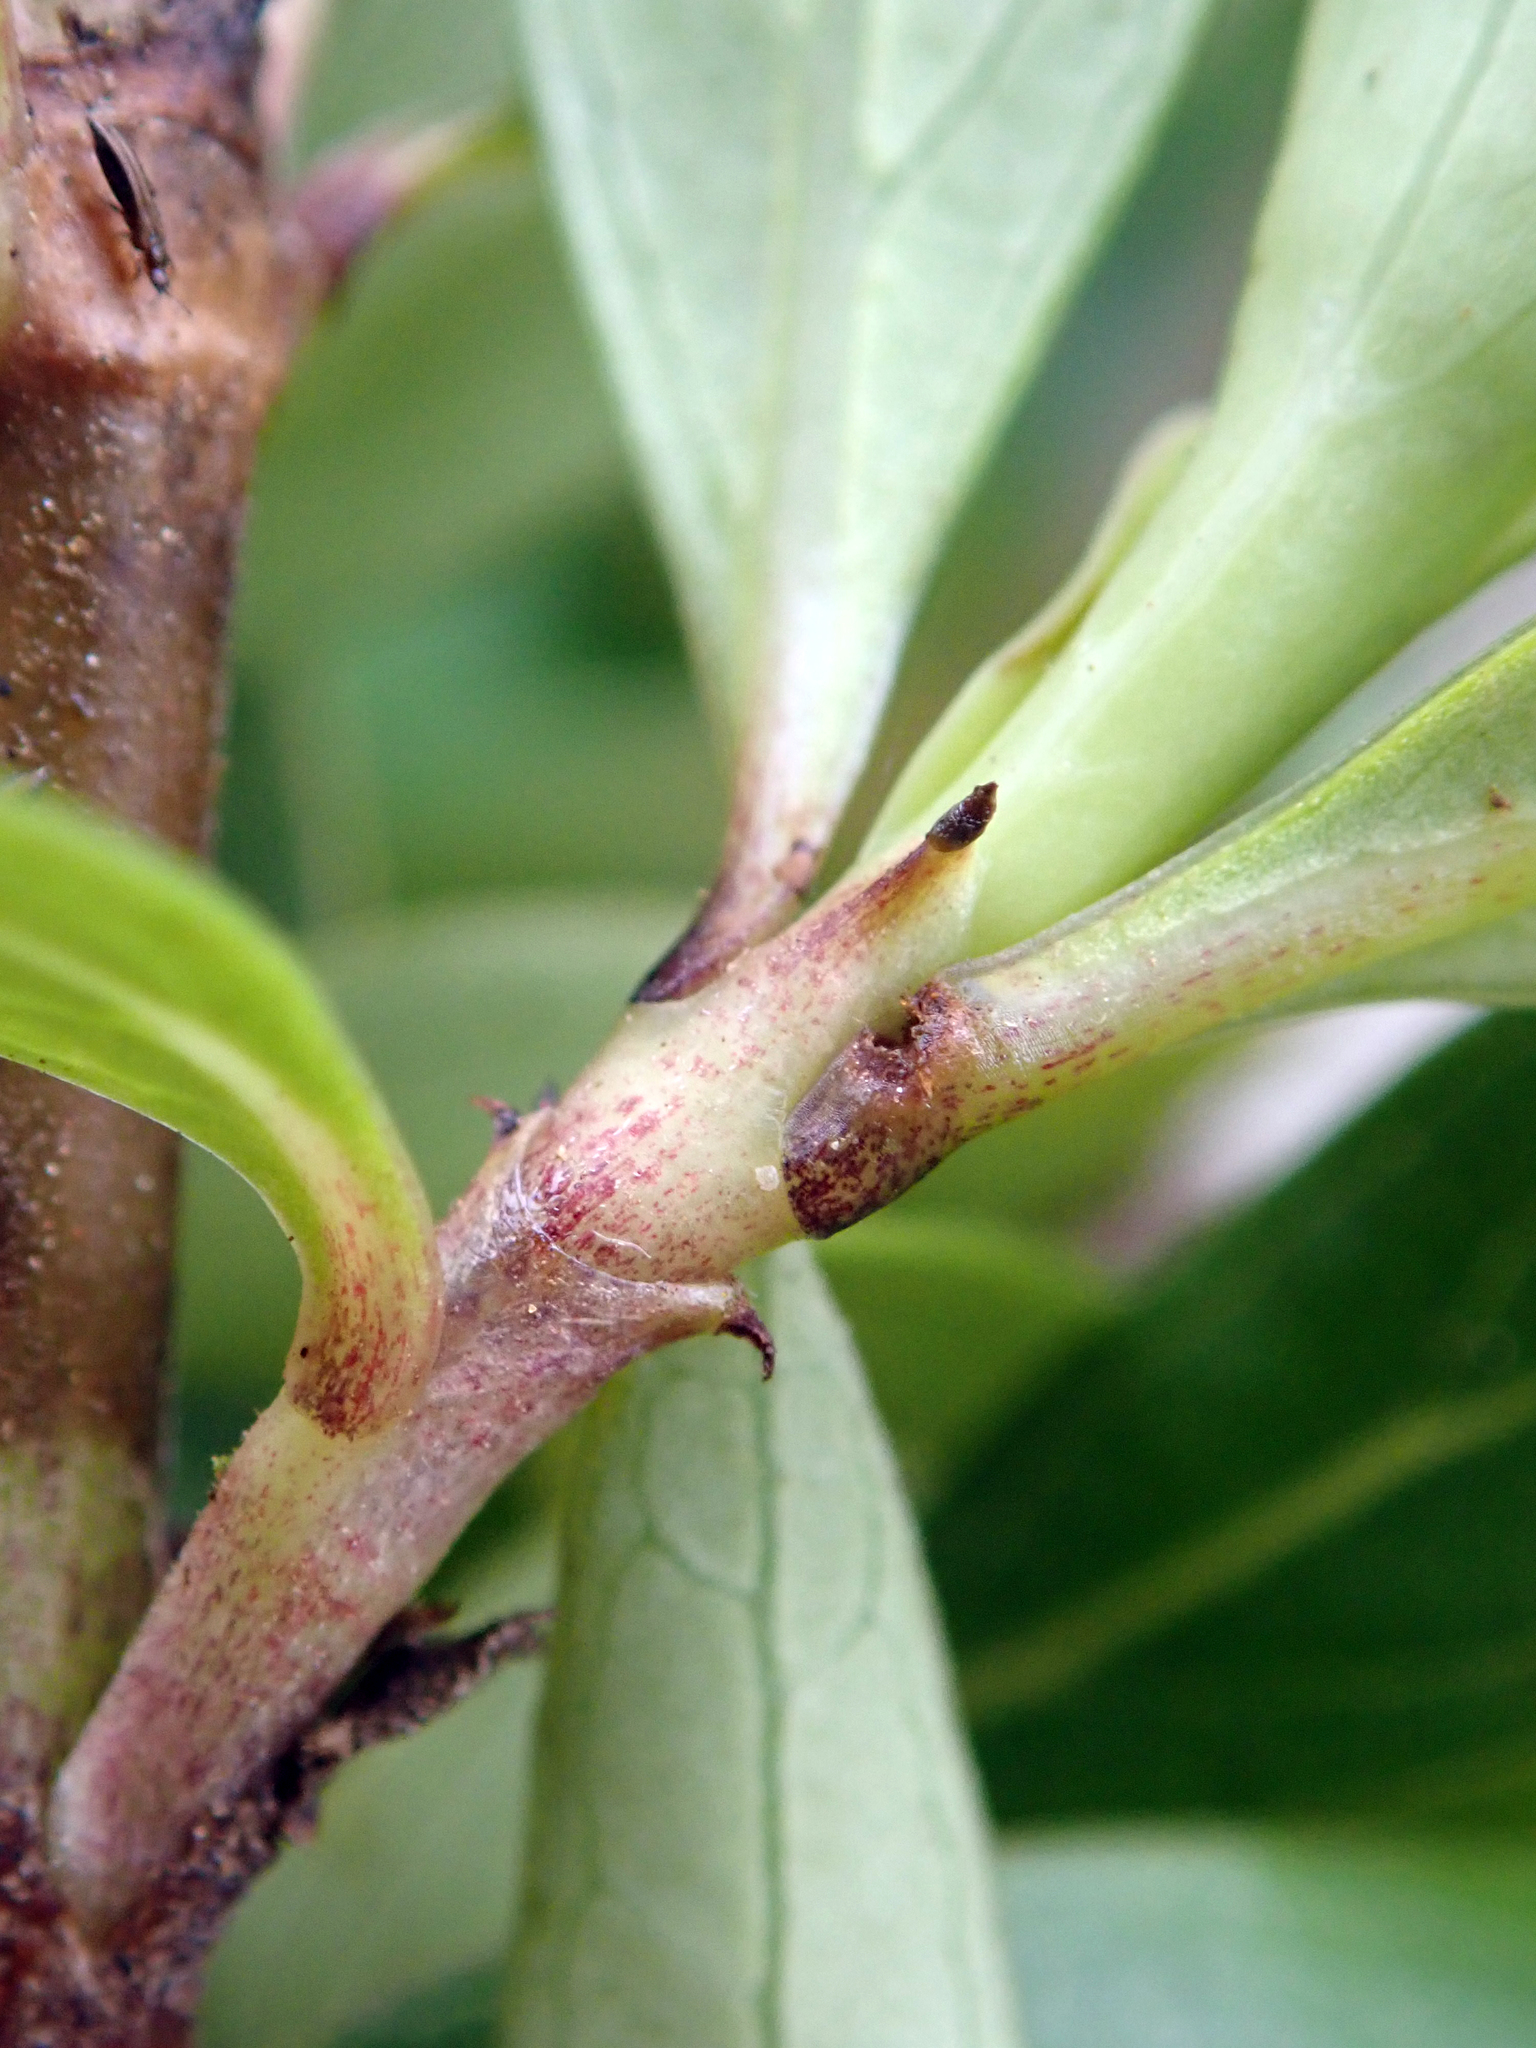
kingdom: Plantae
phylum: Tracheophyta
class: Magnoliopsida
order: Gentianales
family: Rubiaceae
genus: Coprosma
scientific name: Coprosma propinqua
